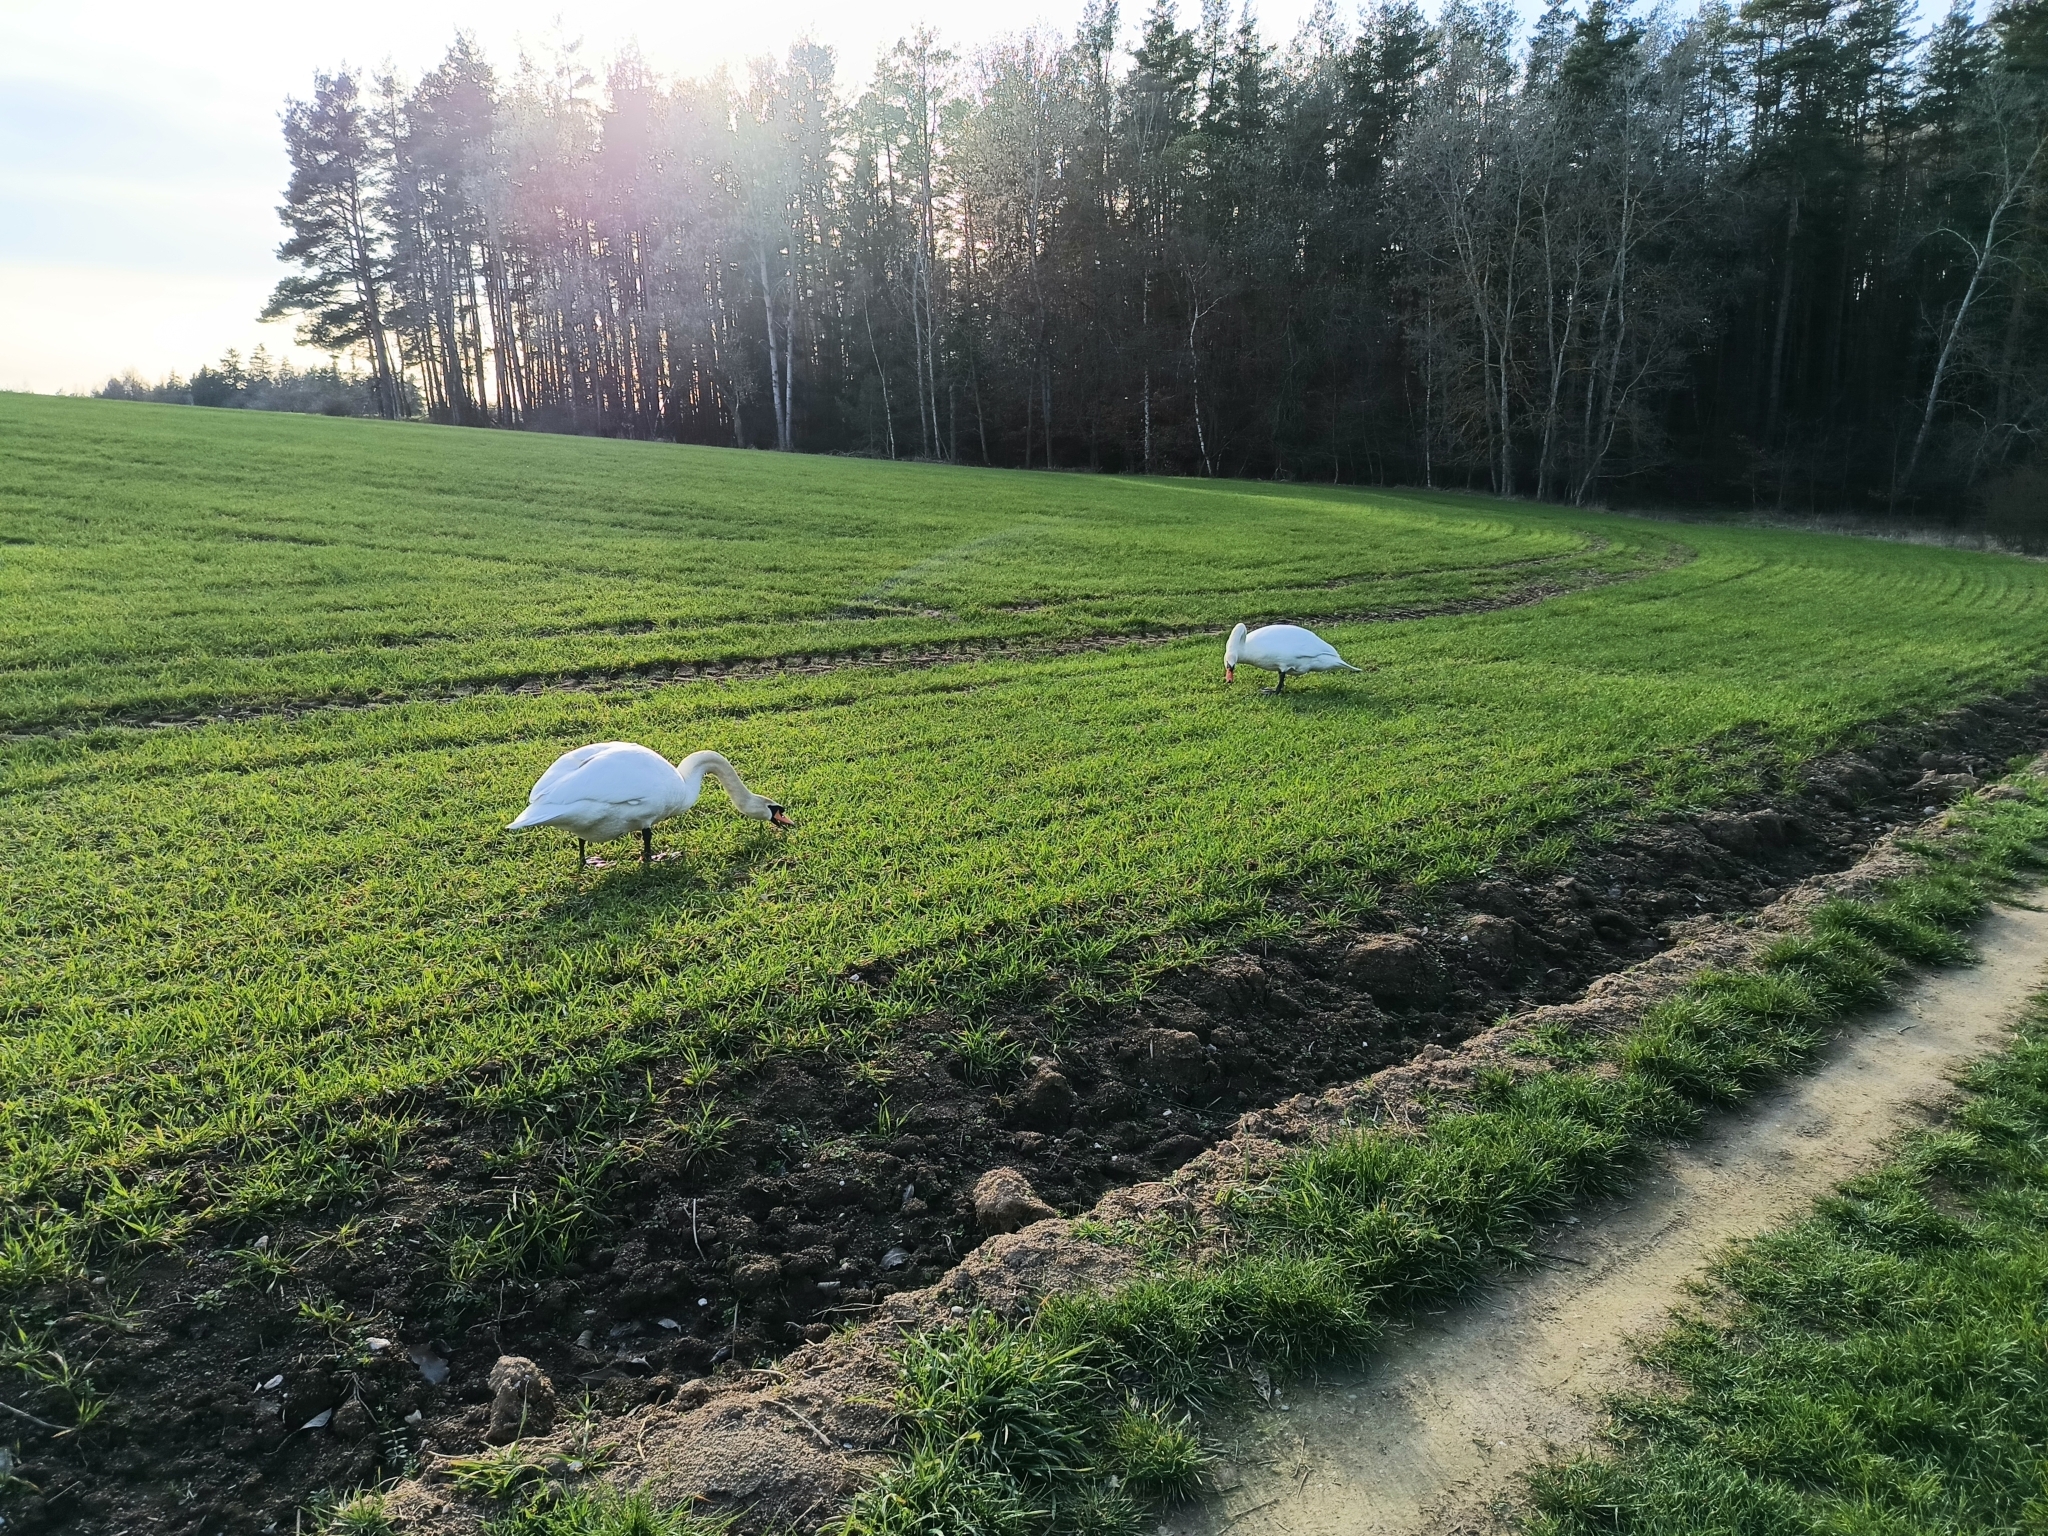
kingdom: Animalia
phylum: Chordata
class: Aves
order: Anseriformes
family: Anatidae
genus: Cygnus
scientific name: Cygnus olor
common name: Mute swan
